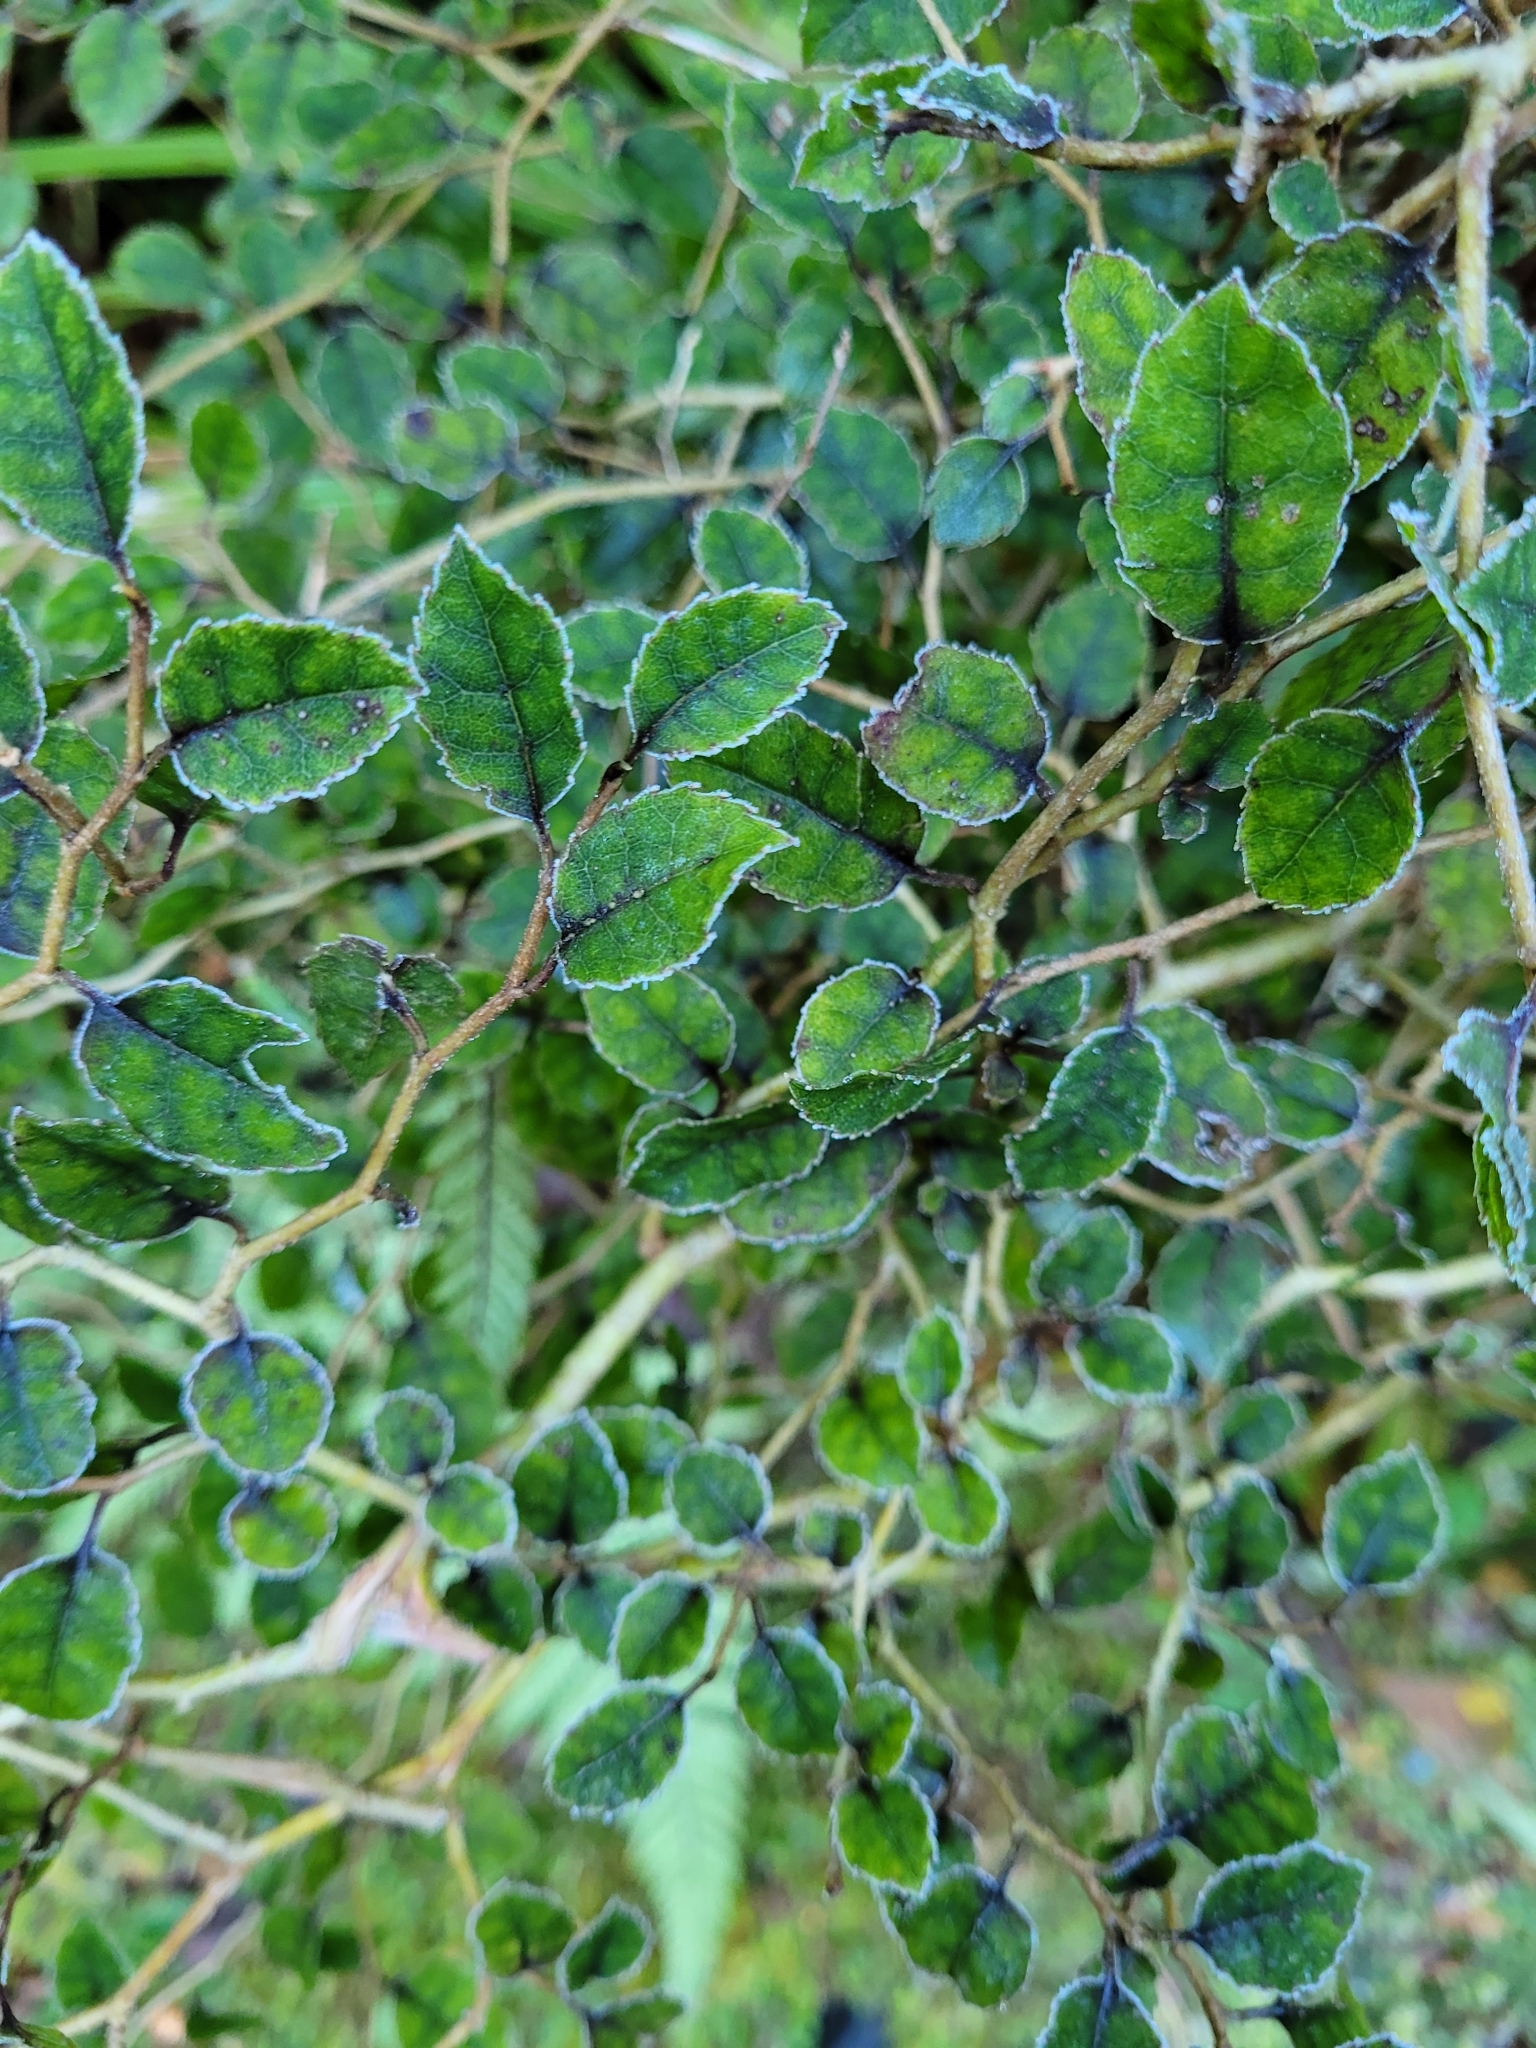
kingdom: Plantae
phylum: Tracheophyta
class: Magnoliopsida
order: Asterales
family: Rousseaceae
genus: Carpodetus
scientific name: Carpodetus serratus
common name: White mapau
